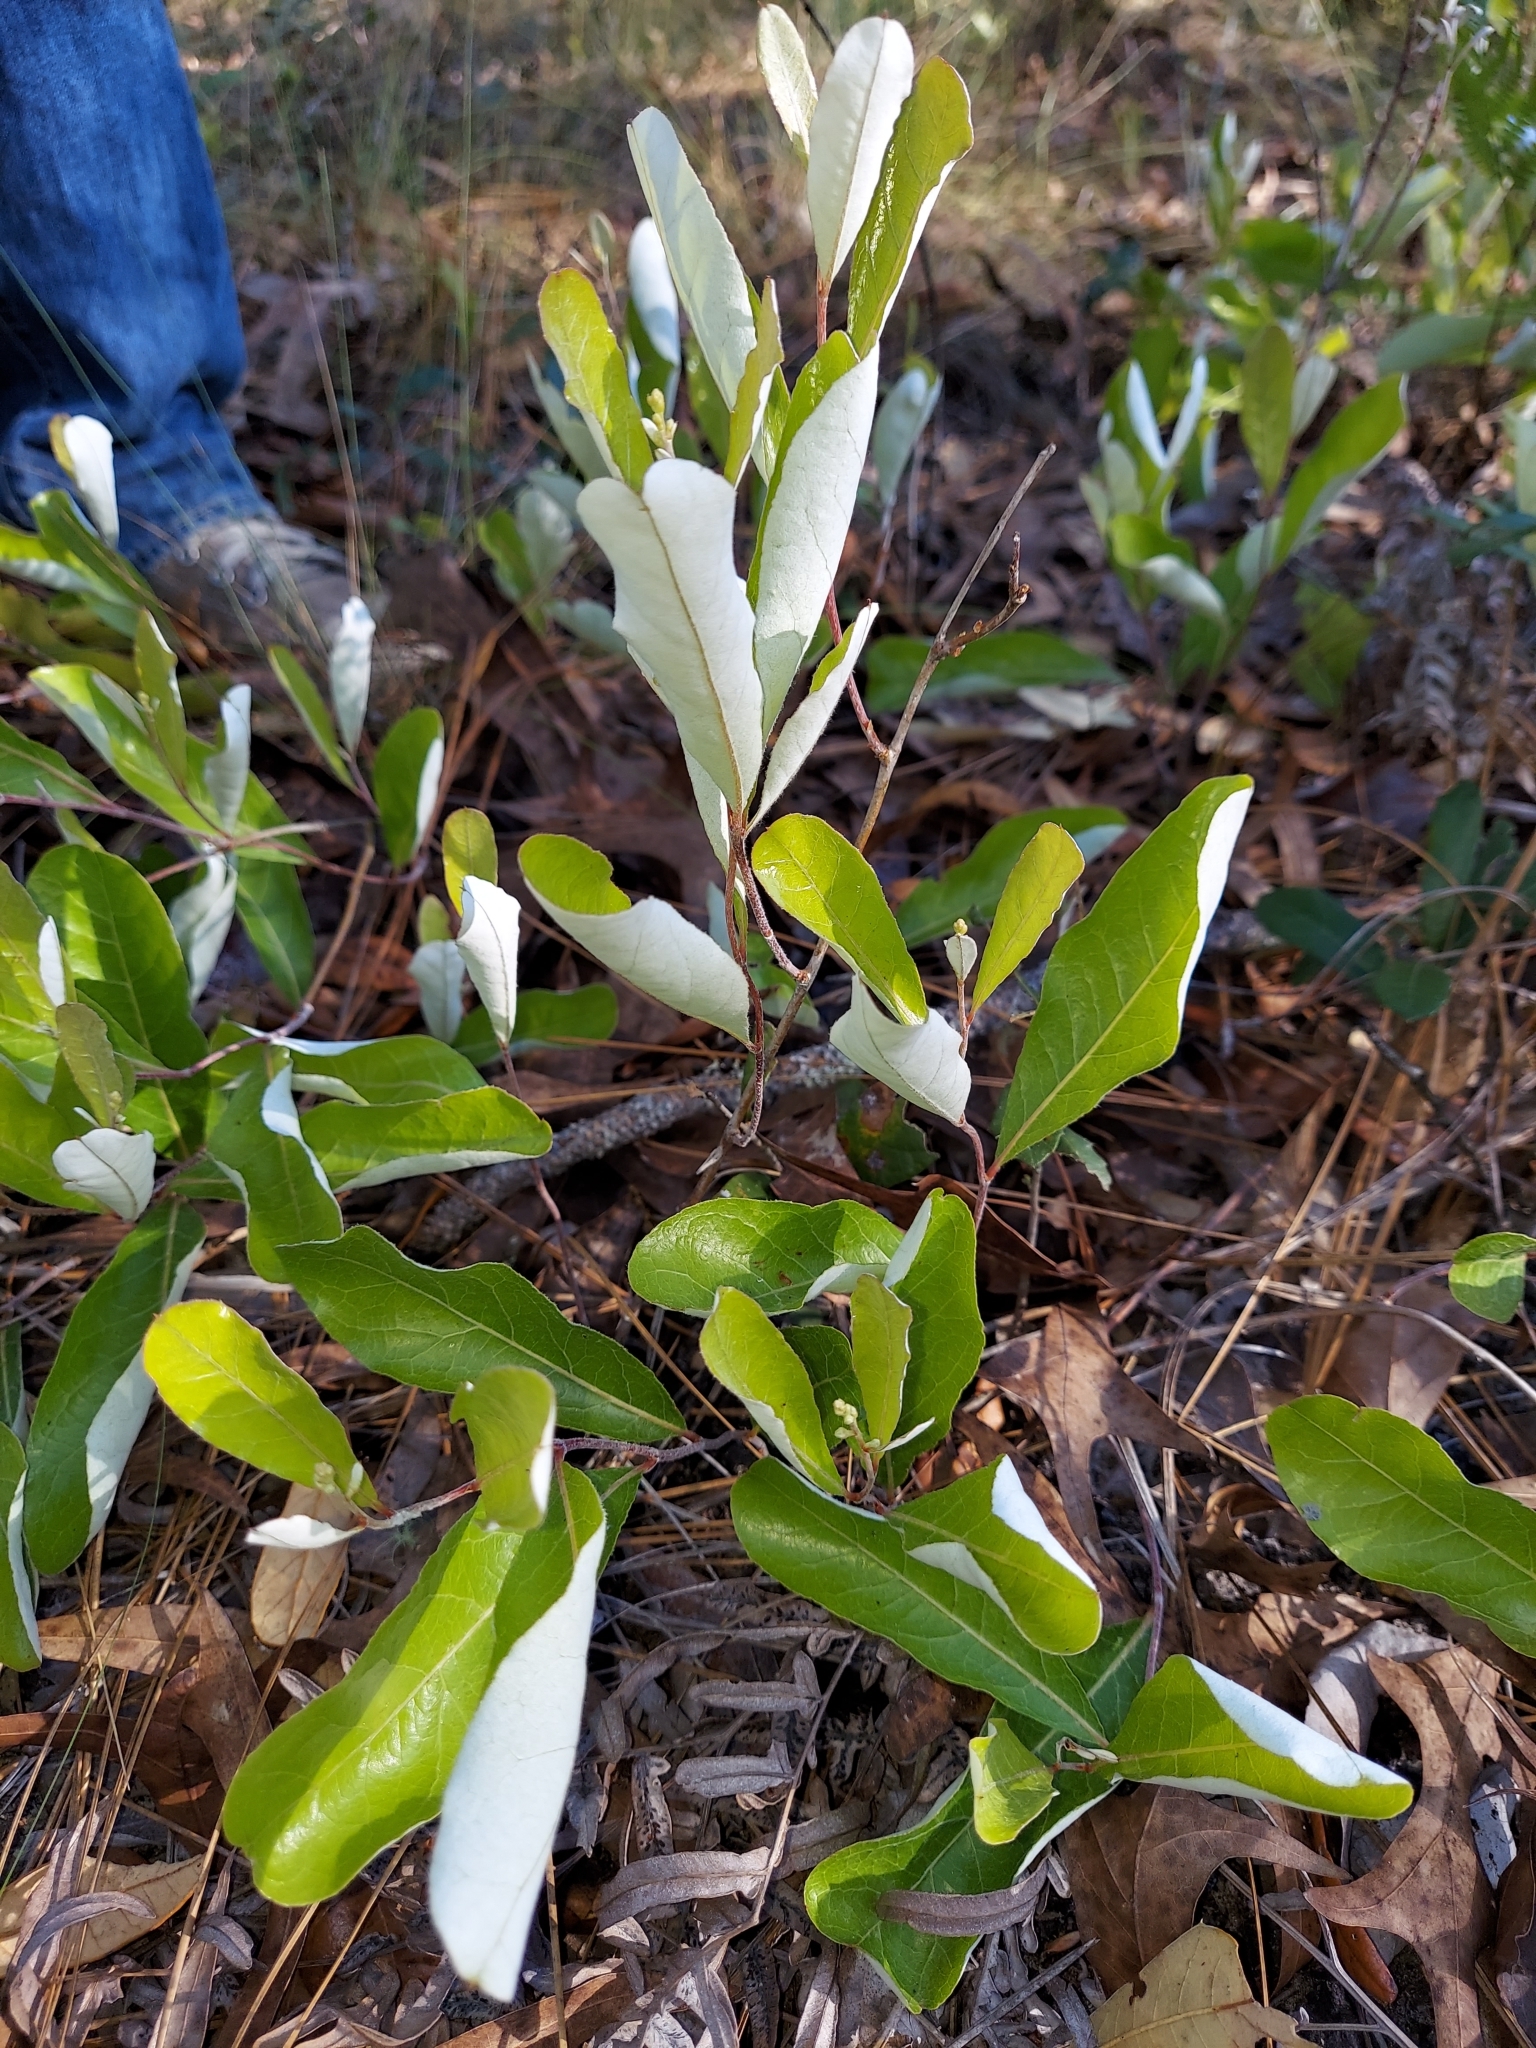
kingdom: Plantae
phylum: Tracheophyta
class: Magnoliopsida
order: Malpighiales
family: Chrysobalanaceae
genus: Geobalanus
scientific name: Geobalanus oblongifolius
